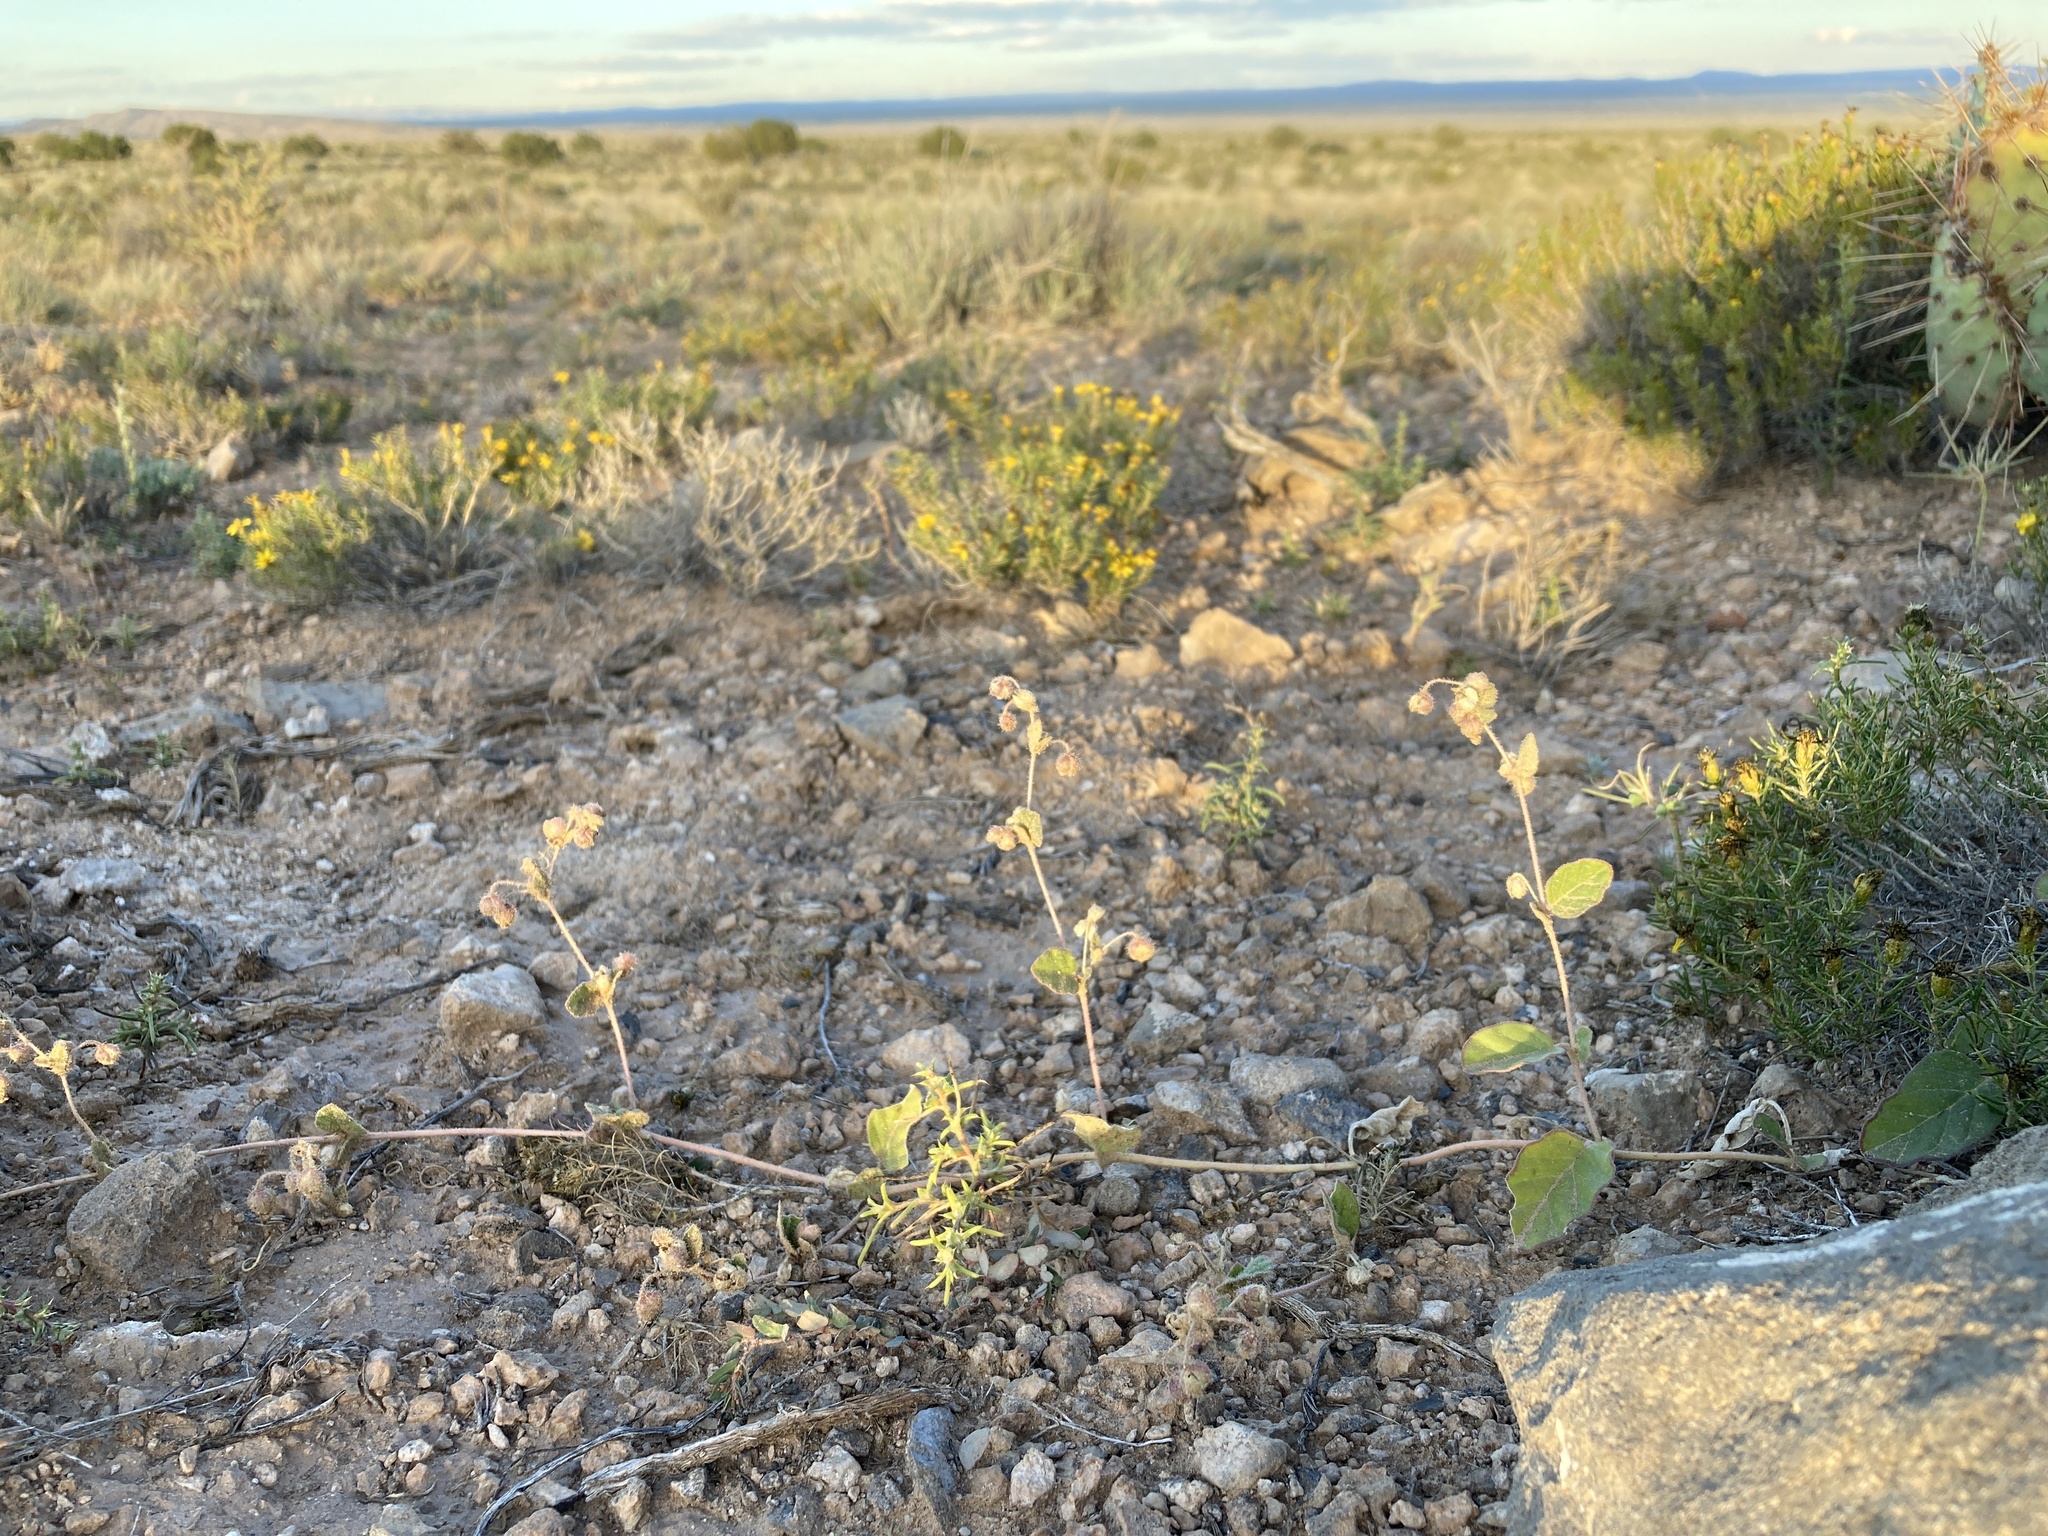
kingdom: Plantae
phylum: Tracheophyta
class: Magnoliopsida
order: Caryophyllales
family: Nyctaginaceae
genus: Allionia
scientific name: Allionia incarnata
